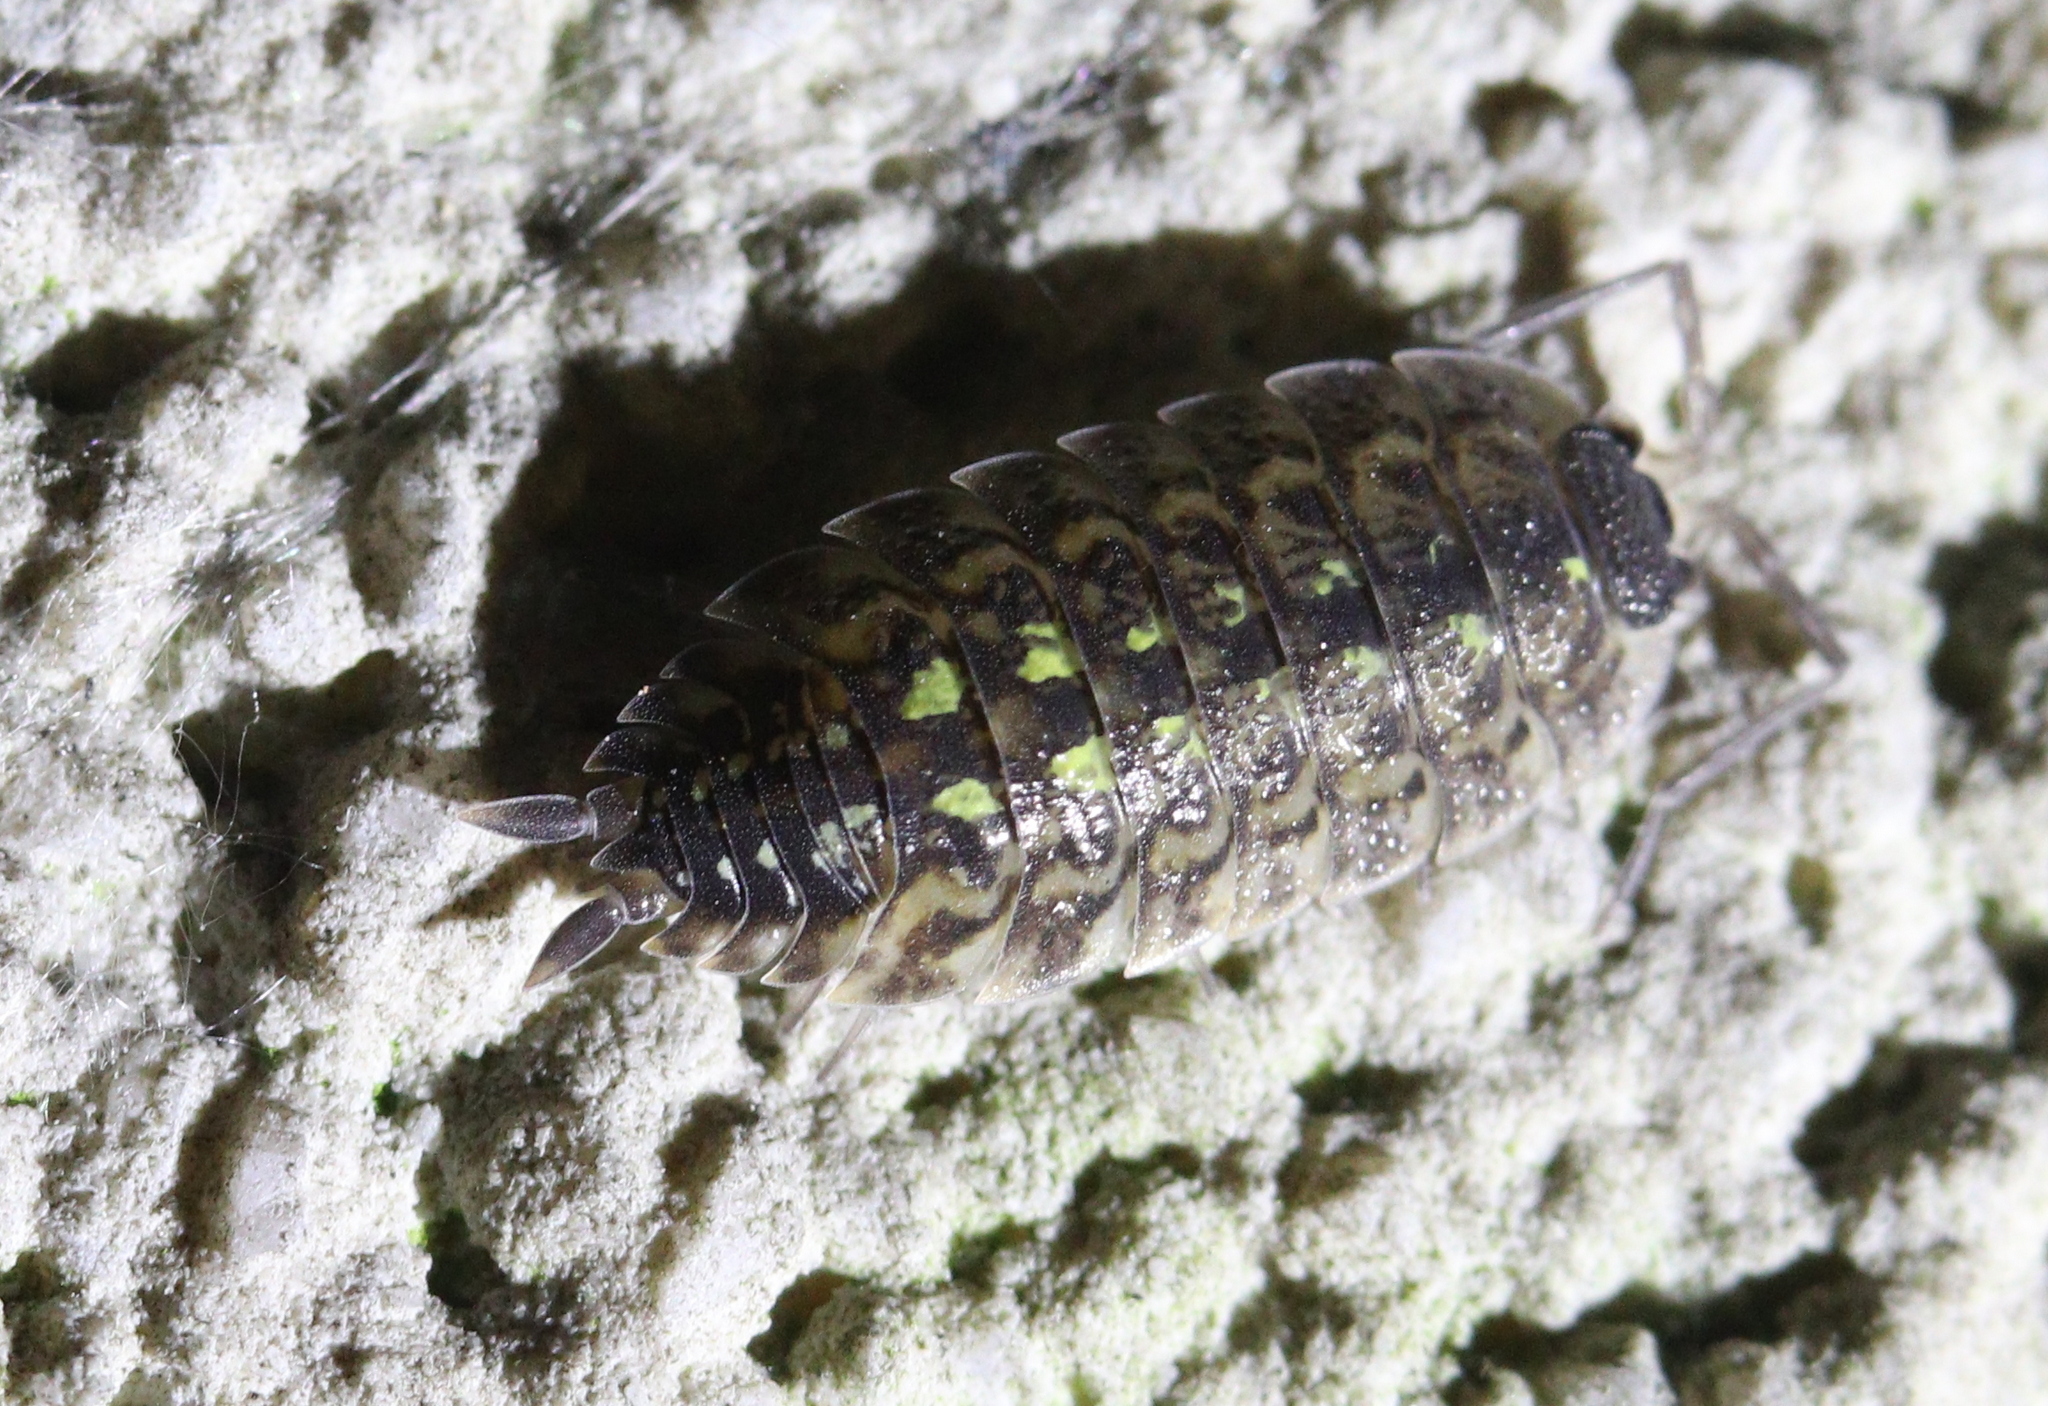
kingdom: Animalia
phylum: Arthropoda
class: Malacostraca
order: Isopoda
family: Porcellionidae
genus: Porcellio
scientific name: Porcellio spinicornis
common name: Painted woodlouse
